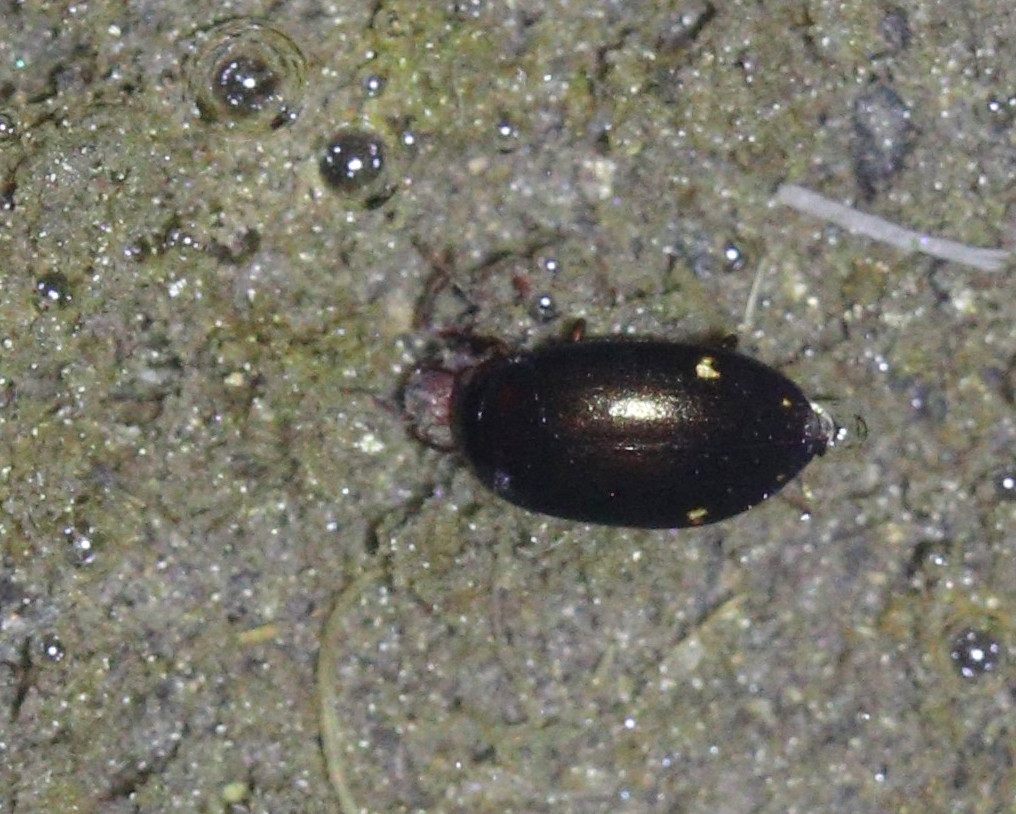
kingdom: Animalia
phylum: Arthropoda
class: Insecta
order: Coleoptera
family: Dytiscidae
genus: Agabus
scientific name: Agabus didymus
